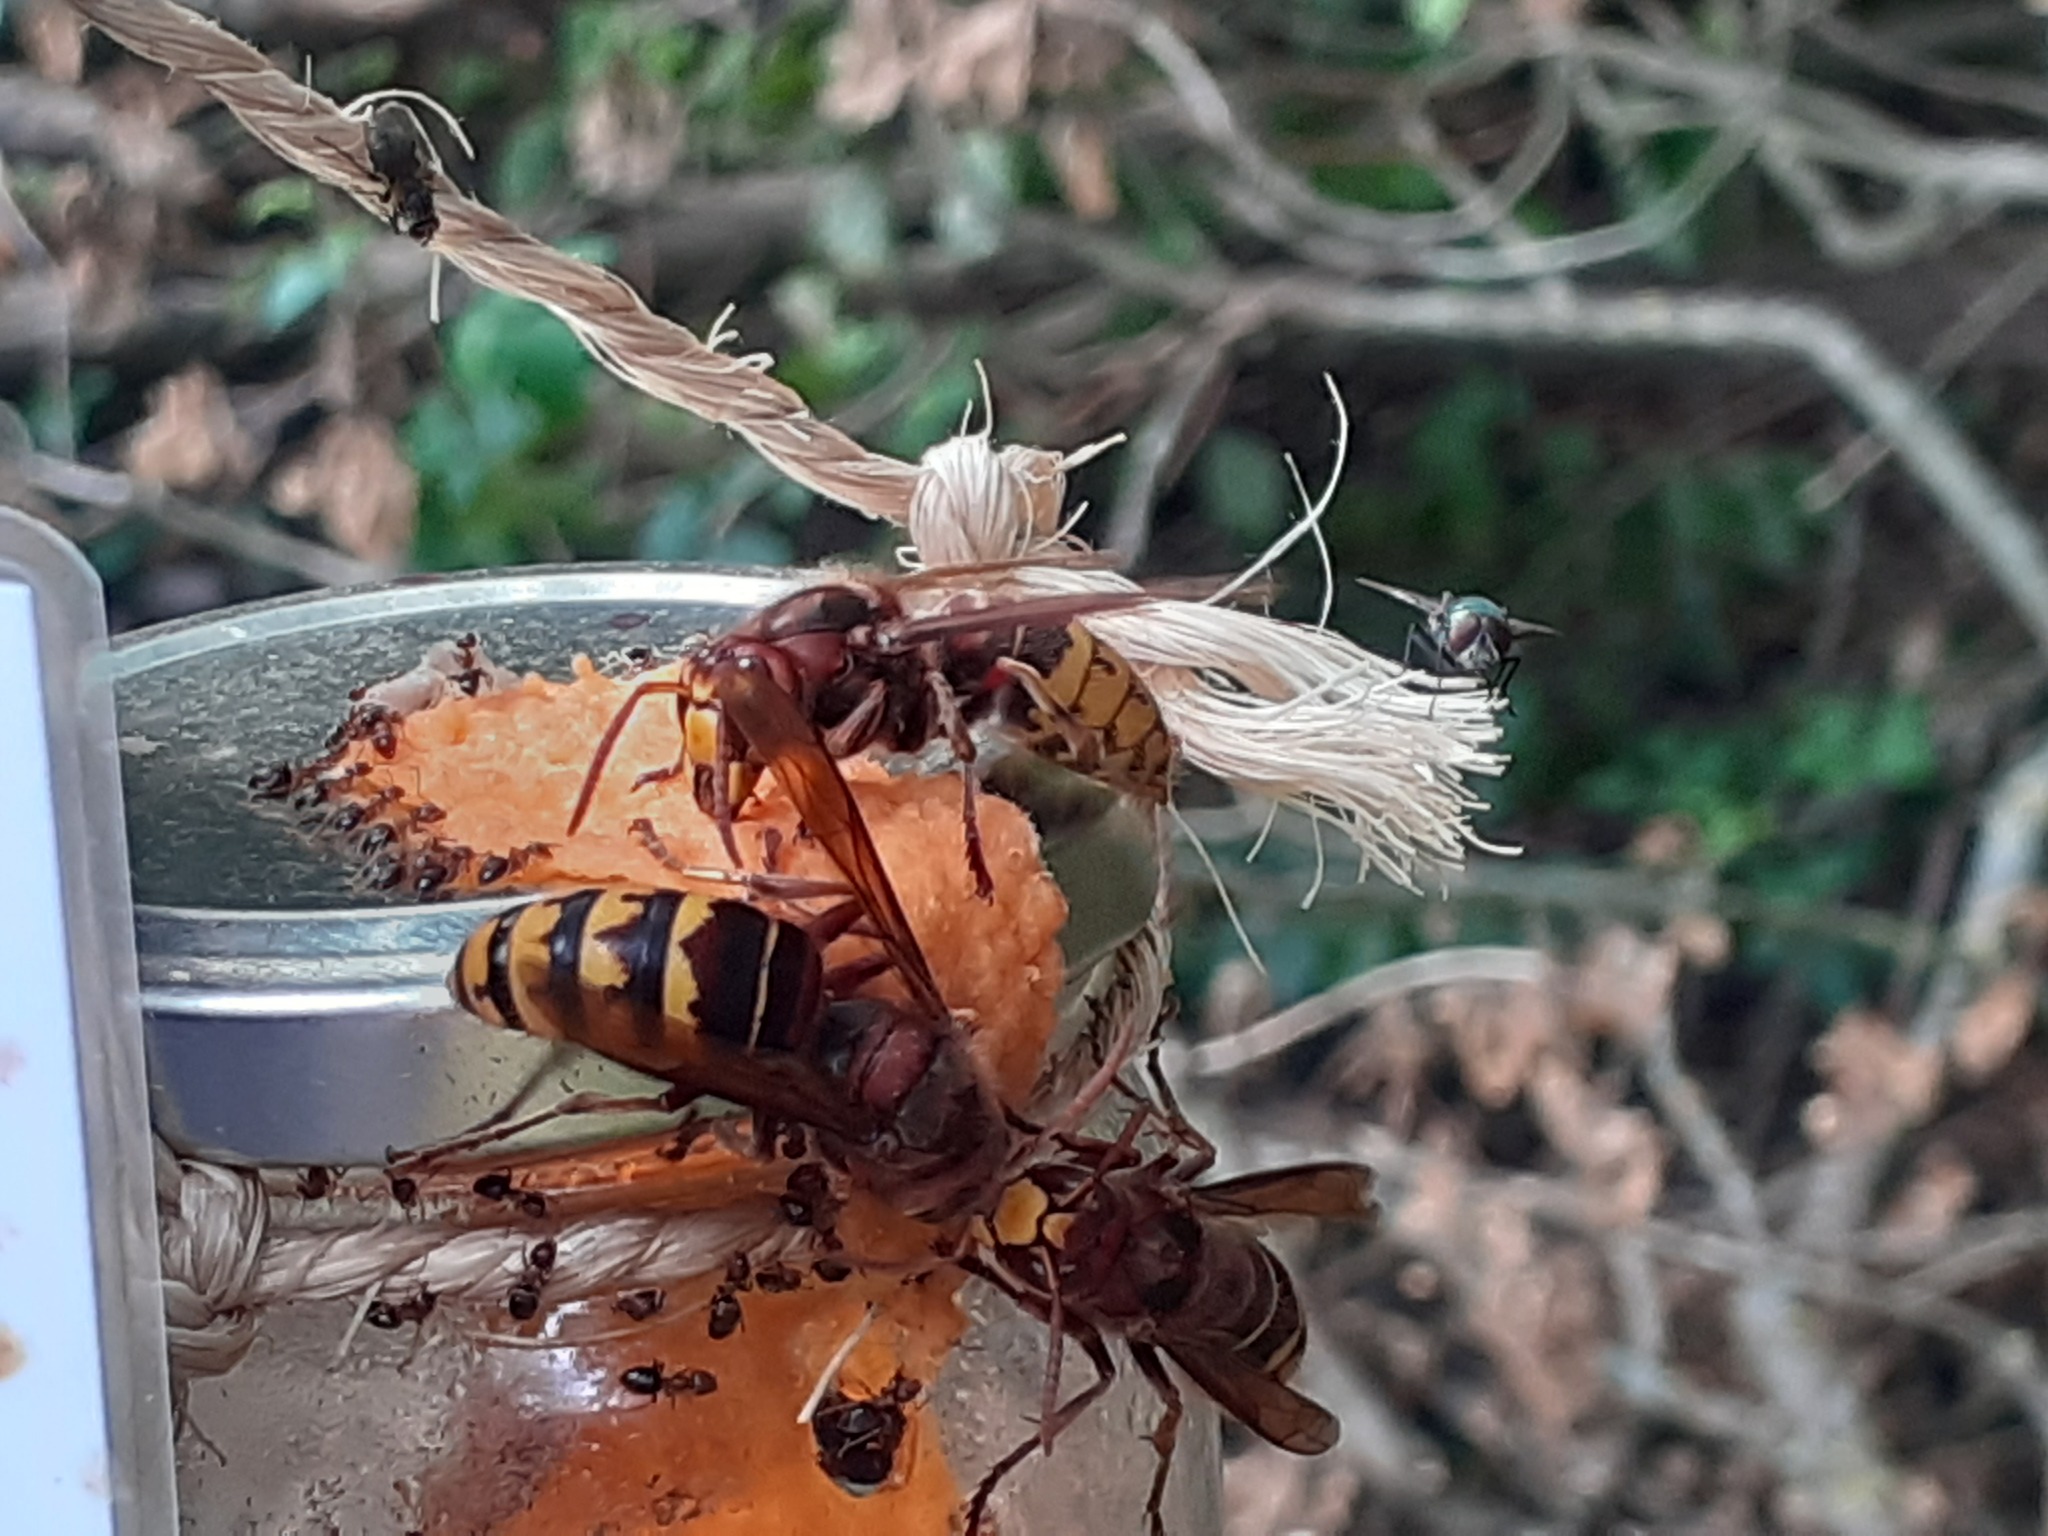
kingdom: Animalia
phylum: Arthropoda
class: Insecta
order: Hymenoptera
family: Vespidae
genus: Vespa
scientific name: Vespa crabro
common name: Hornet
